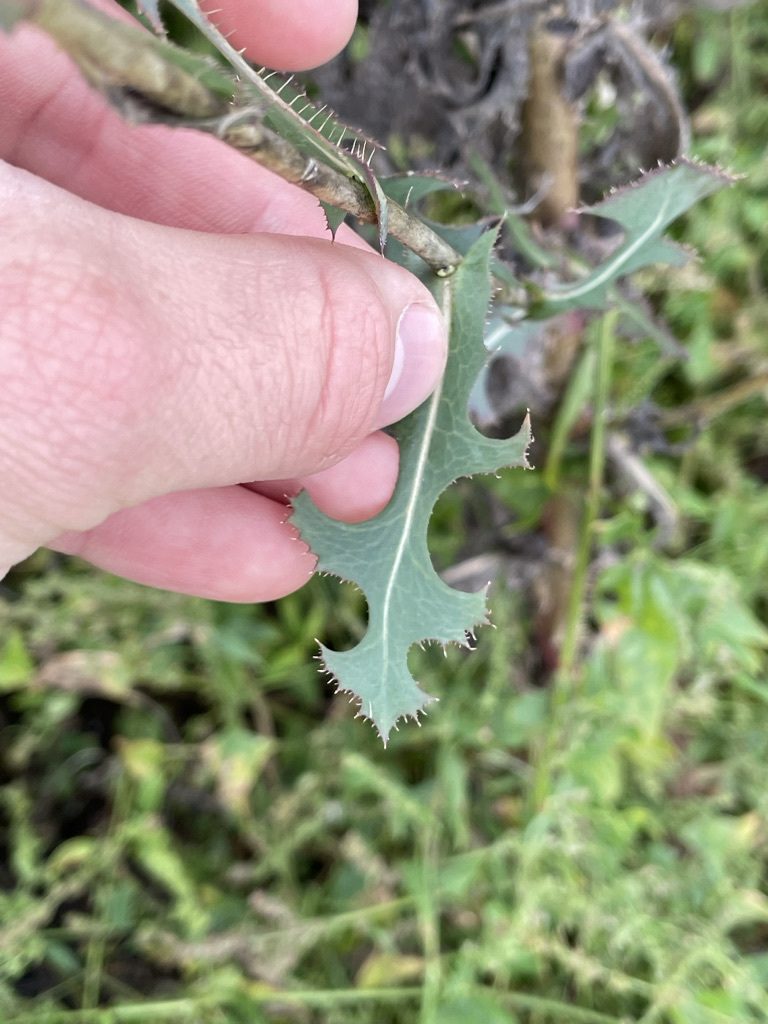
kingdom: Plantae
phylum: Tracheophyta
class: Magnoliopsida
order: Asterales
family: Asteraceae
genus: Lactuca
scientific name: Lactuca serriola
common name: Prickly lettuce
